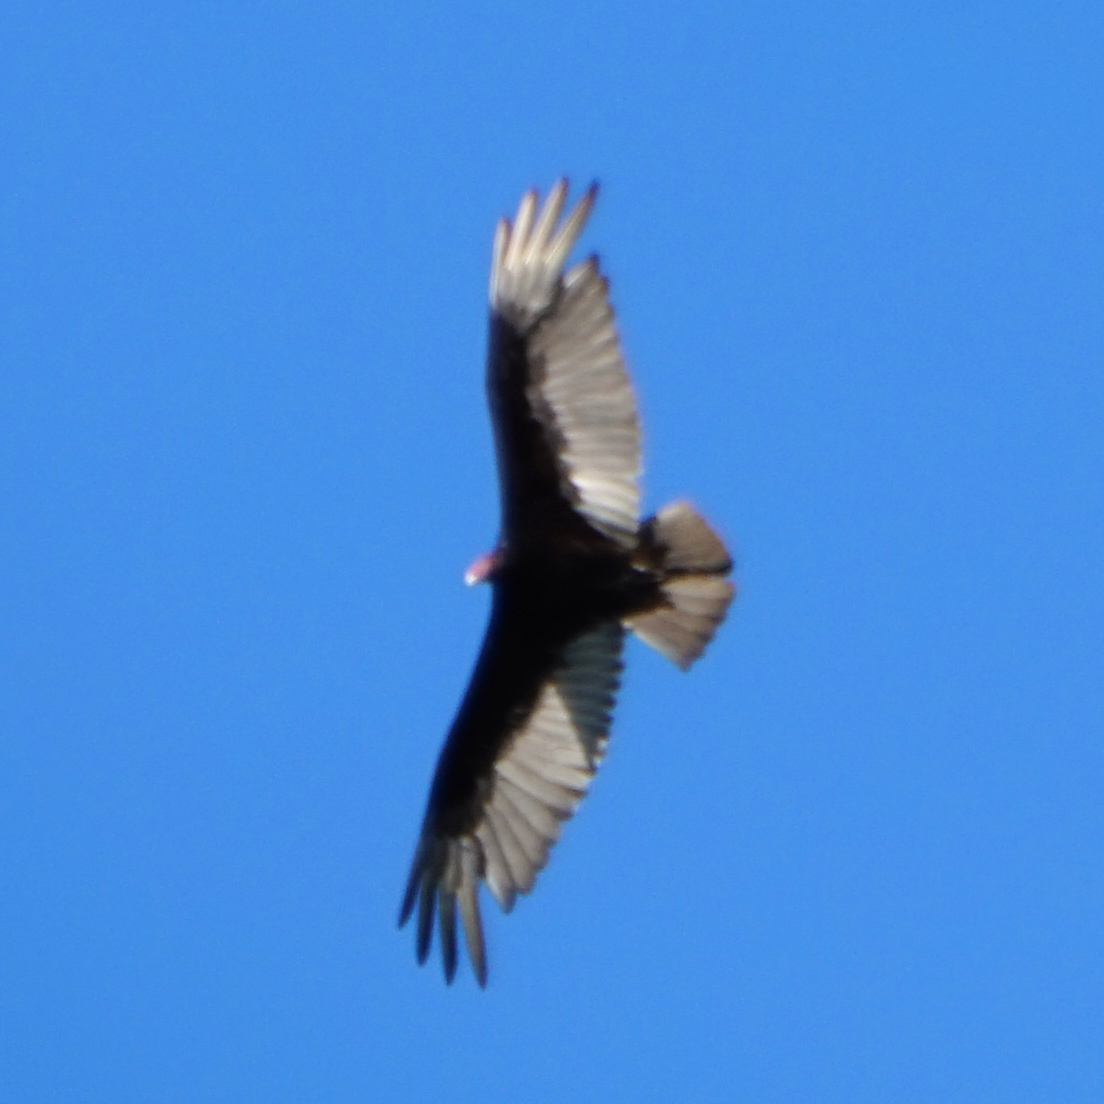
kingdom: Animalia
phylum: Chordata
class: Aves
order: Accipitriformes
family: Cathartidae
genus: Cathartes
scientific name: Cathartes aura
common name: Turkey vulture
